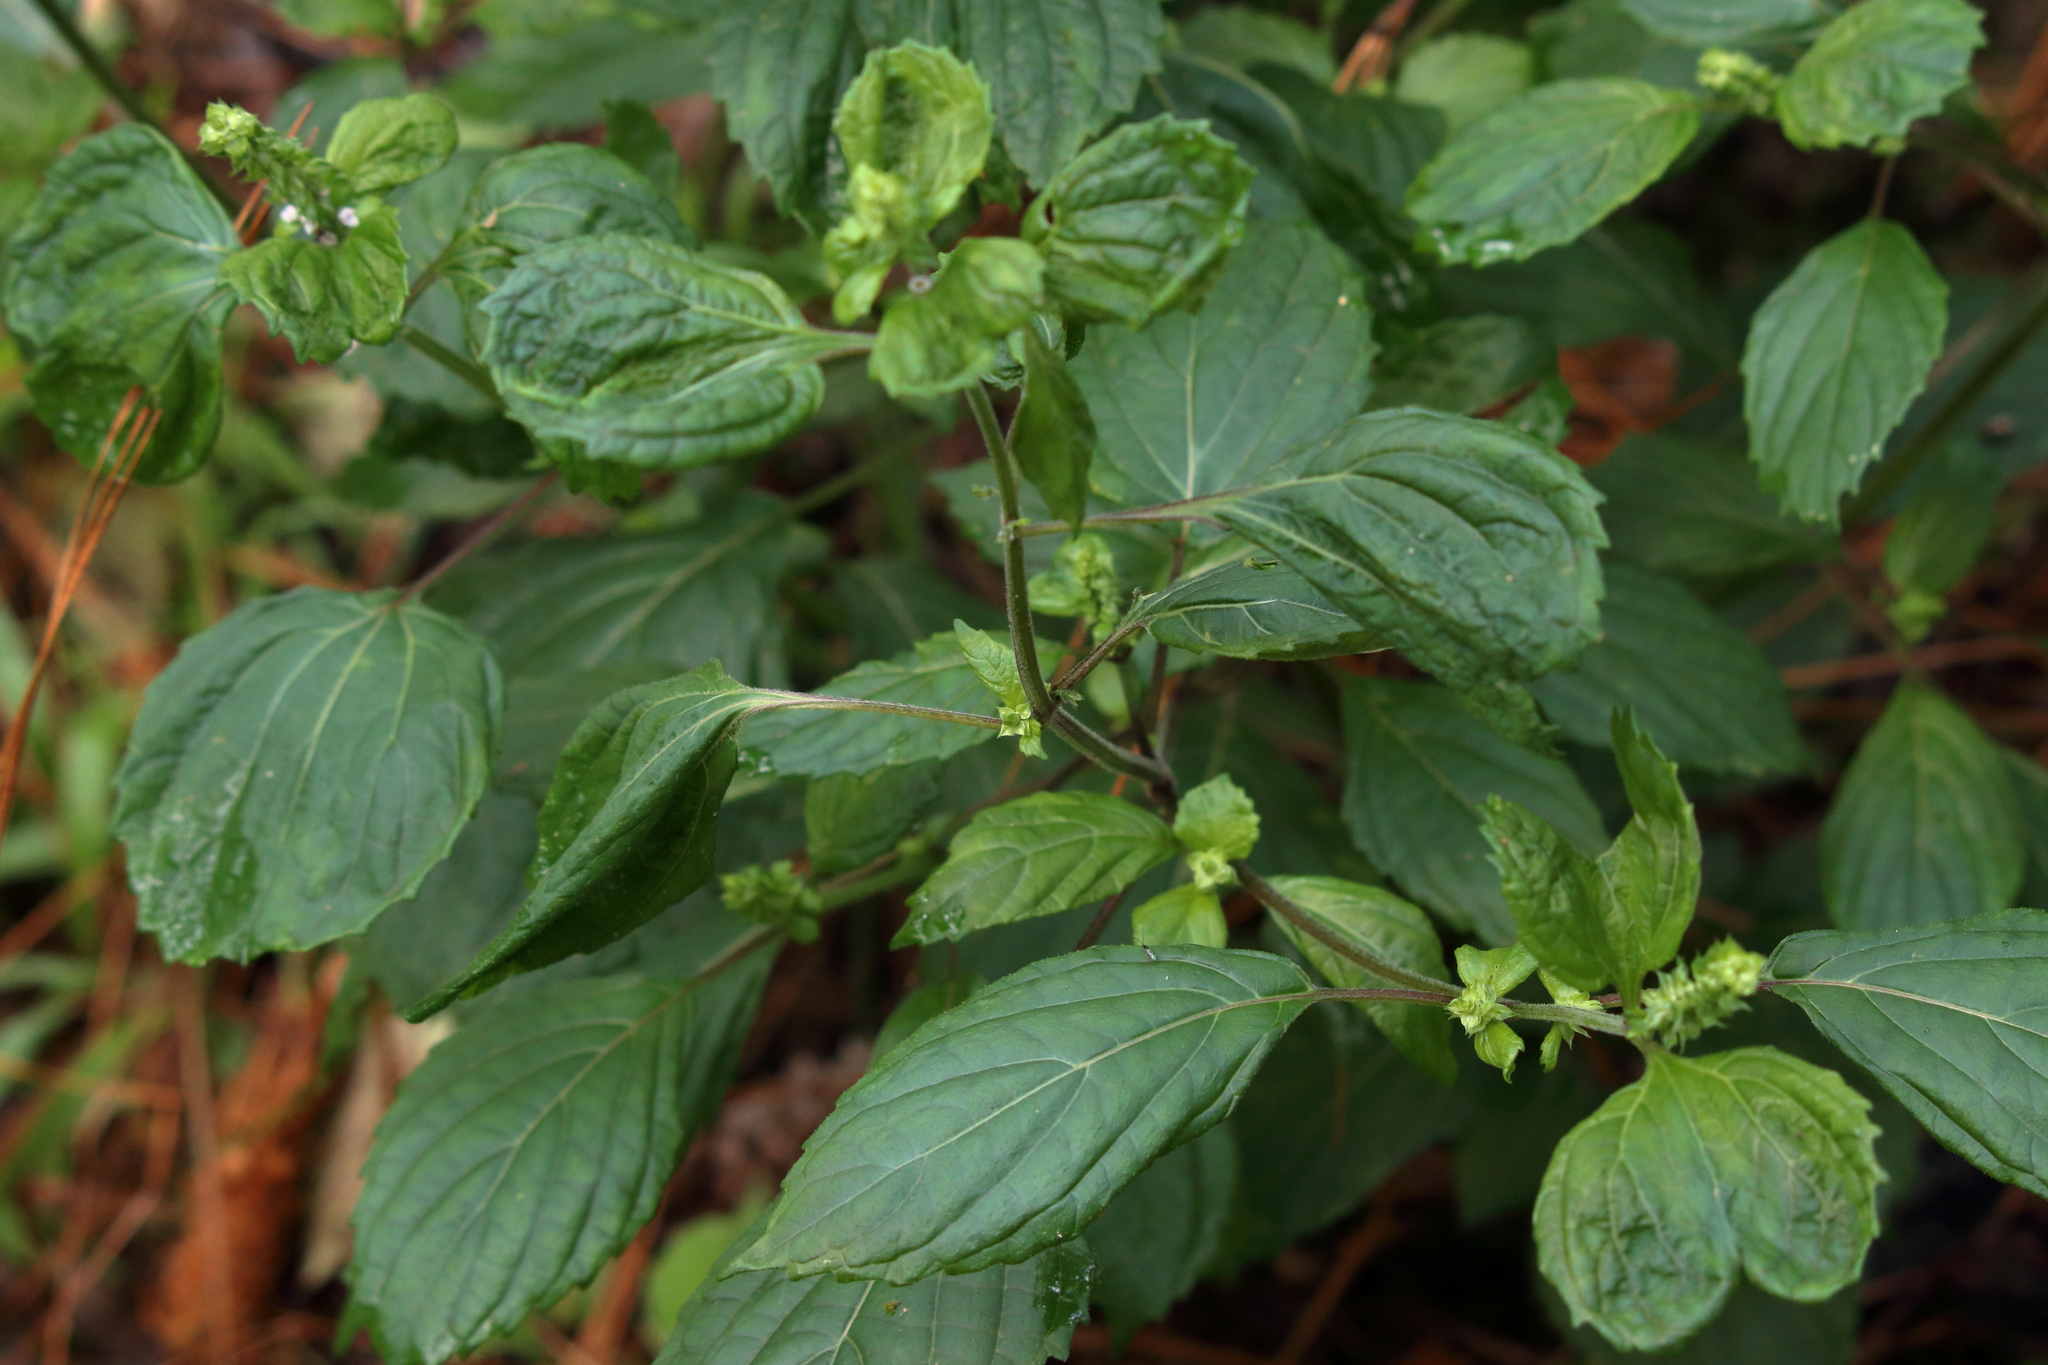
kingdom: Plantae
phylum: Tracheophyta
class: Magnoliopsida
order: Lamiales
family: Lamiaceae
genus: Perilla
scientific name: Perilla frutescens
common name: Perilla
